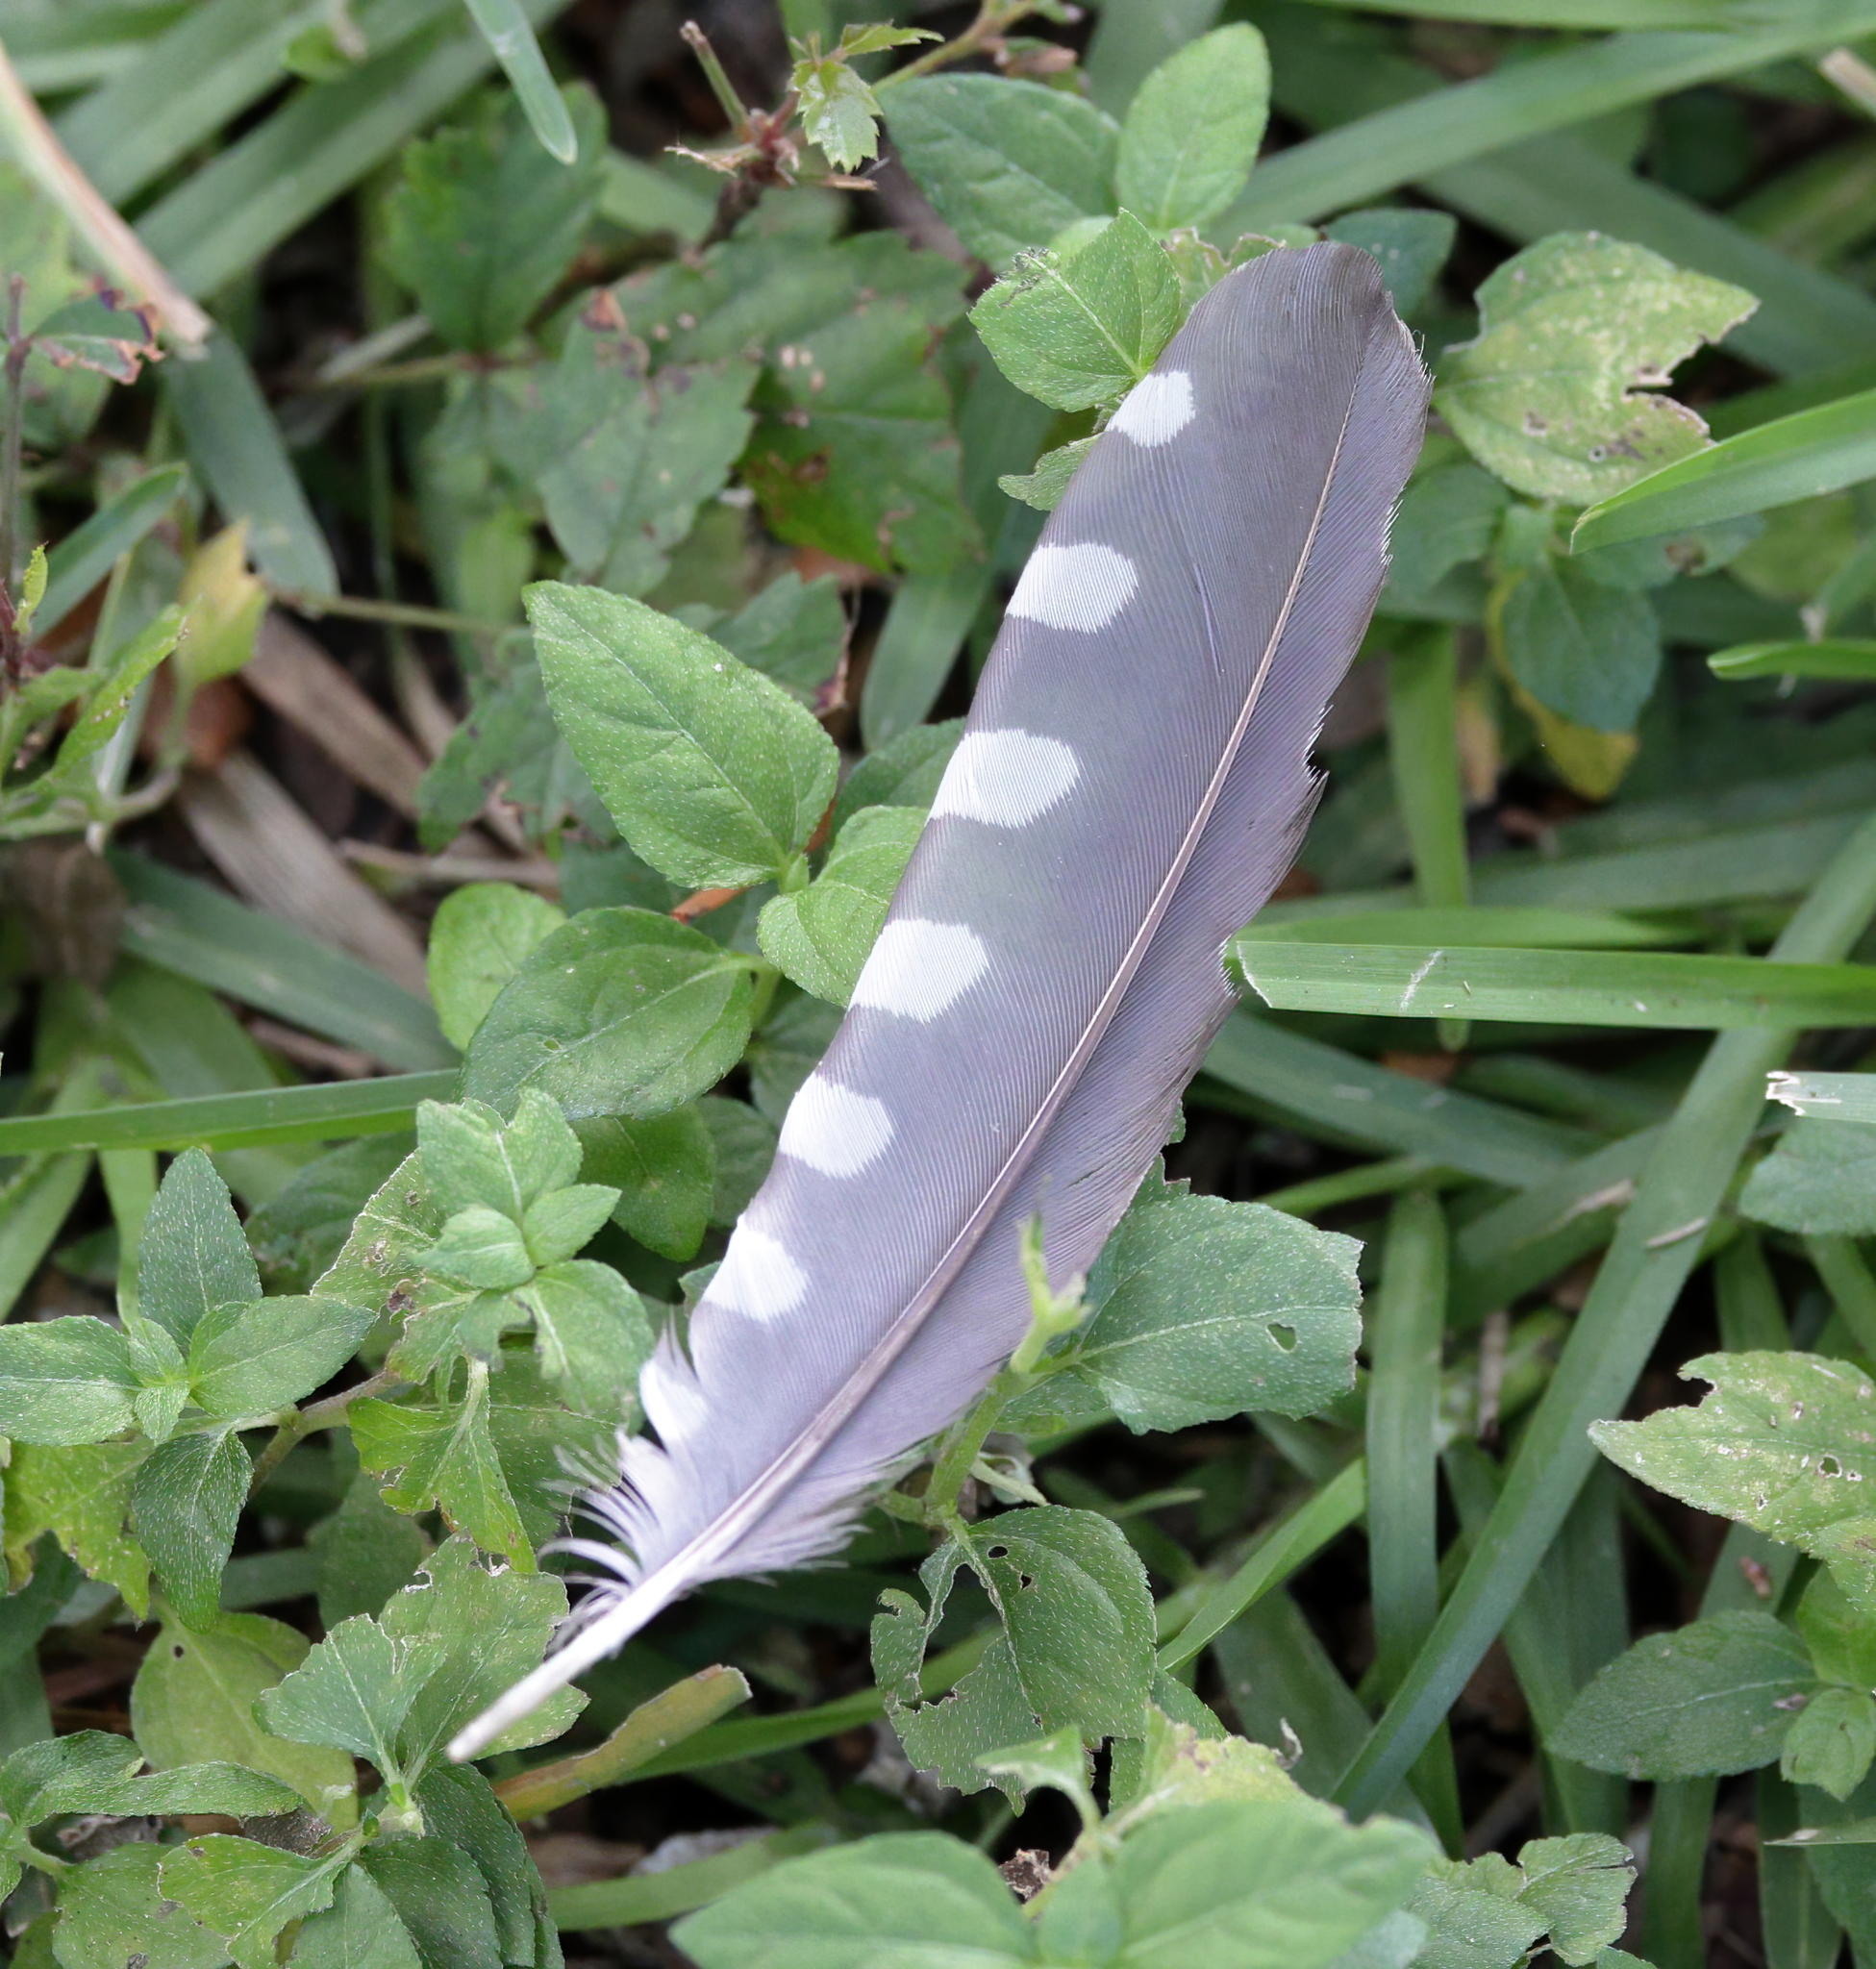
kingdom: Animalia
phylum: Chordata
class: Aves
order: Piciformes
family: Picidae
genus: Melanerpes
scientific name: Melanerpes carolinus
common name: Red-bellied woodpecker
